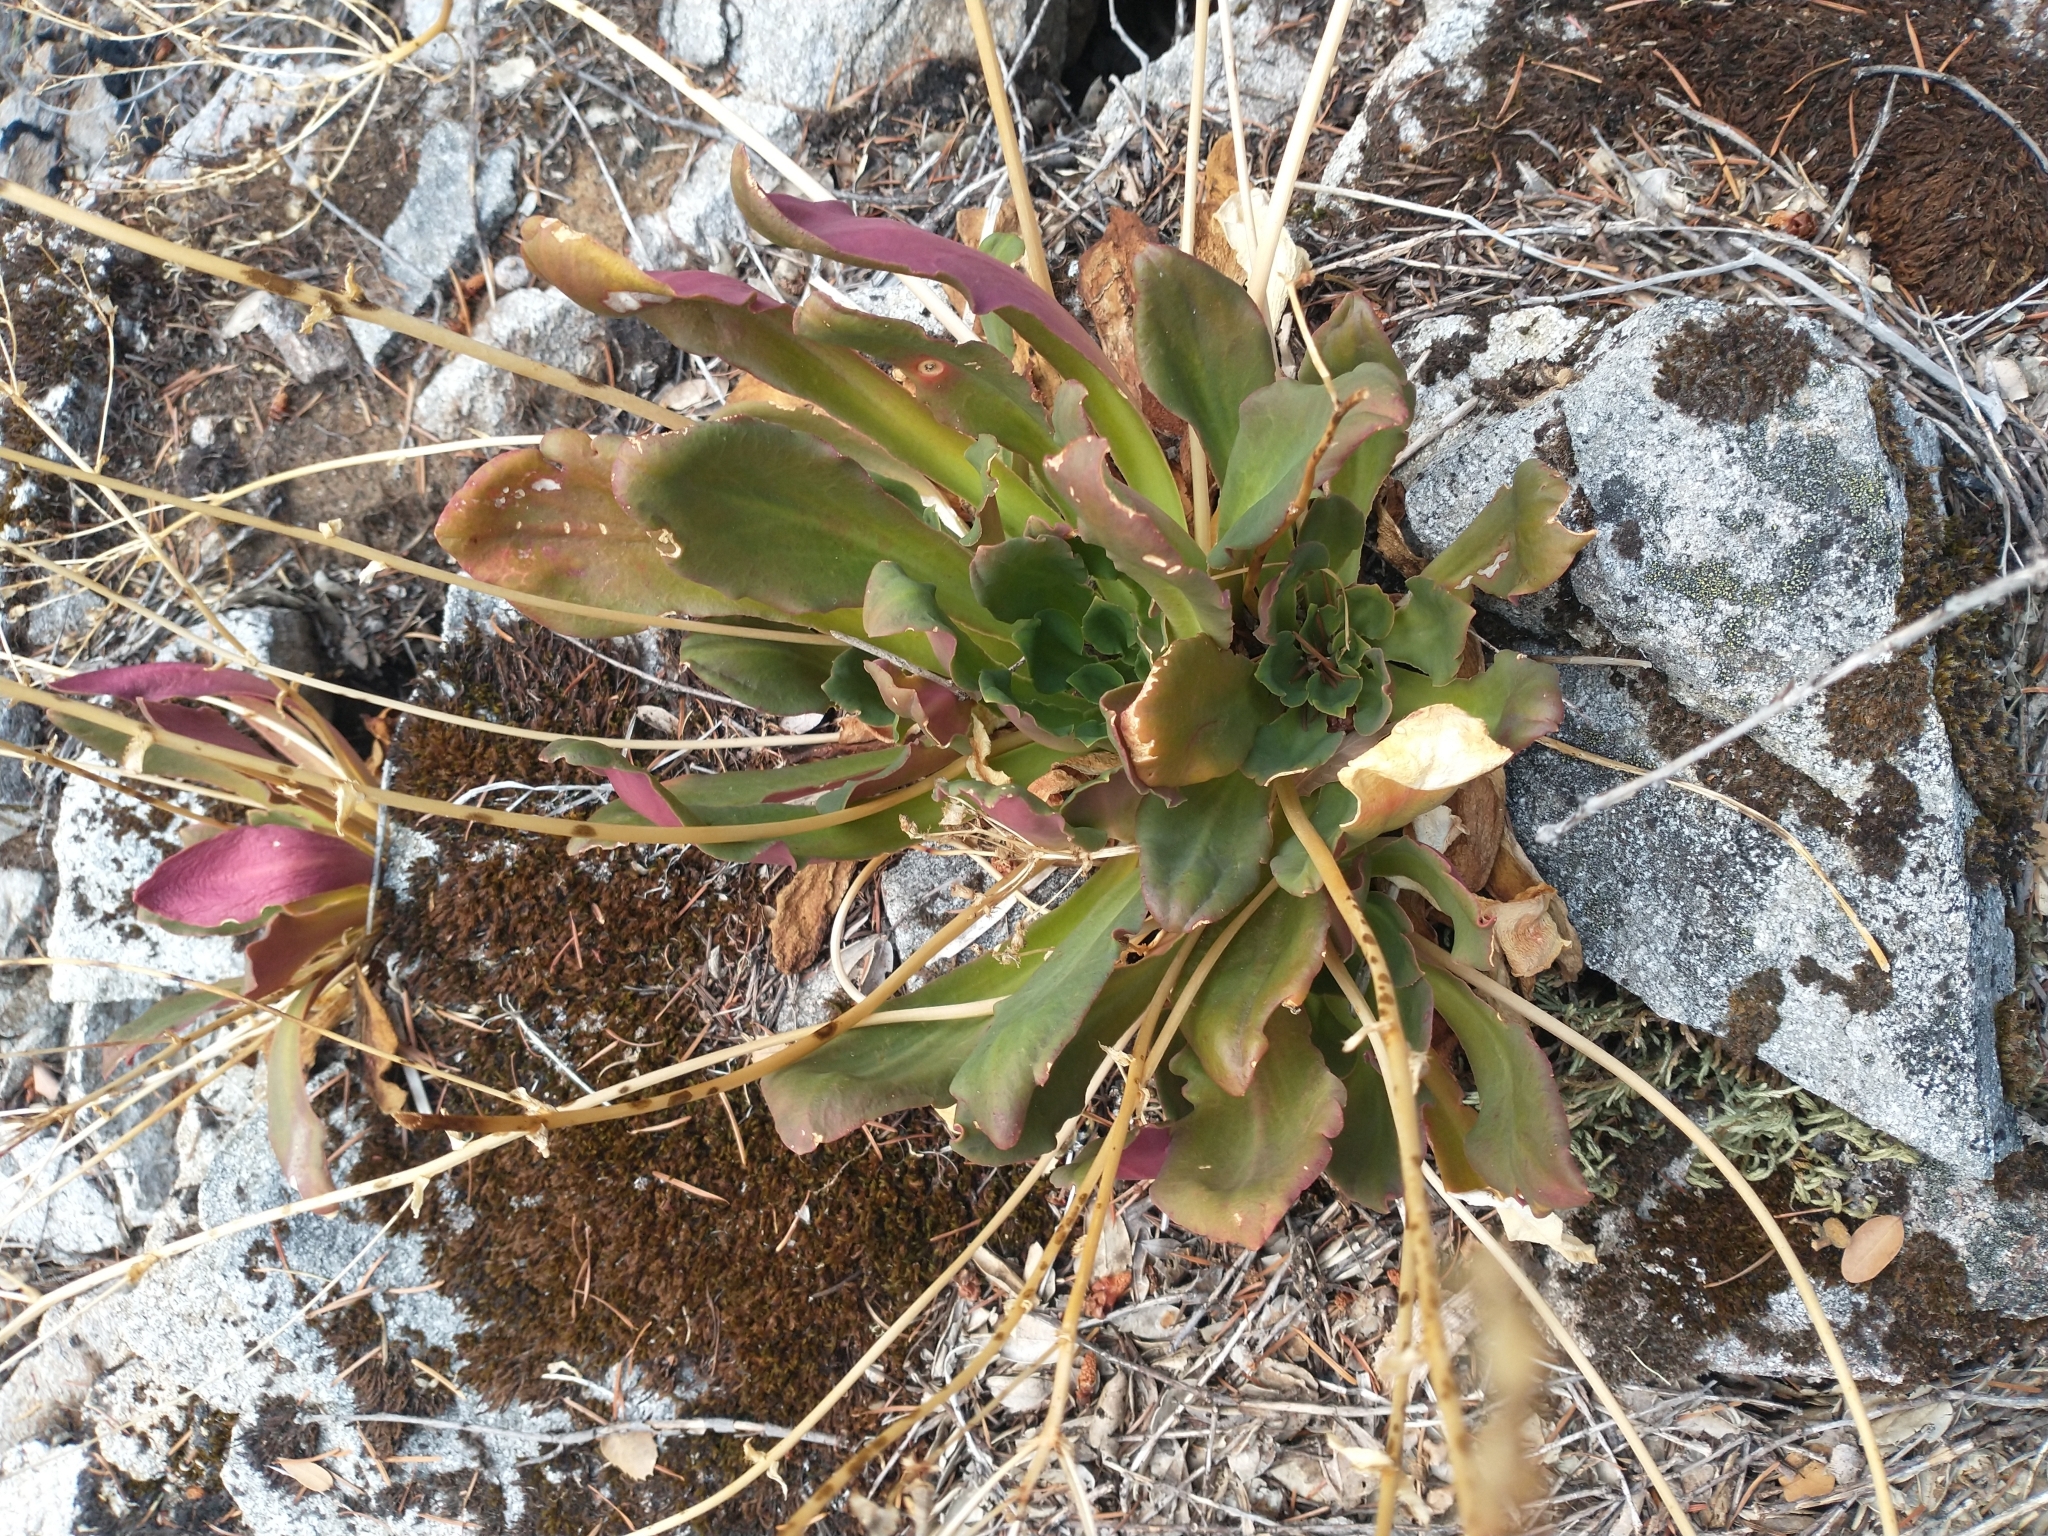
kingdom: Plantae
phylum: Tracheophyta
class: Magnoliopsida
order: Caryophyllales
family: Montiaceae
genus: Lewisia
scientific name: Lewisia cotyledon
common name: Siskiyou lewisia
